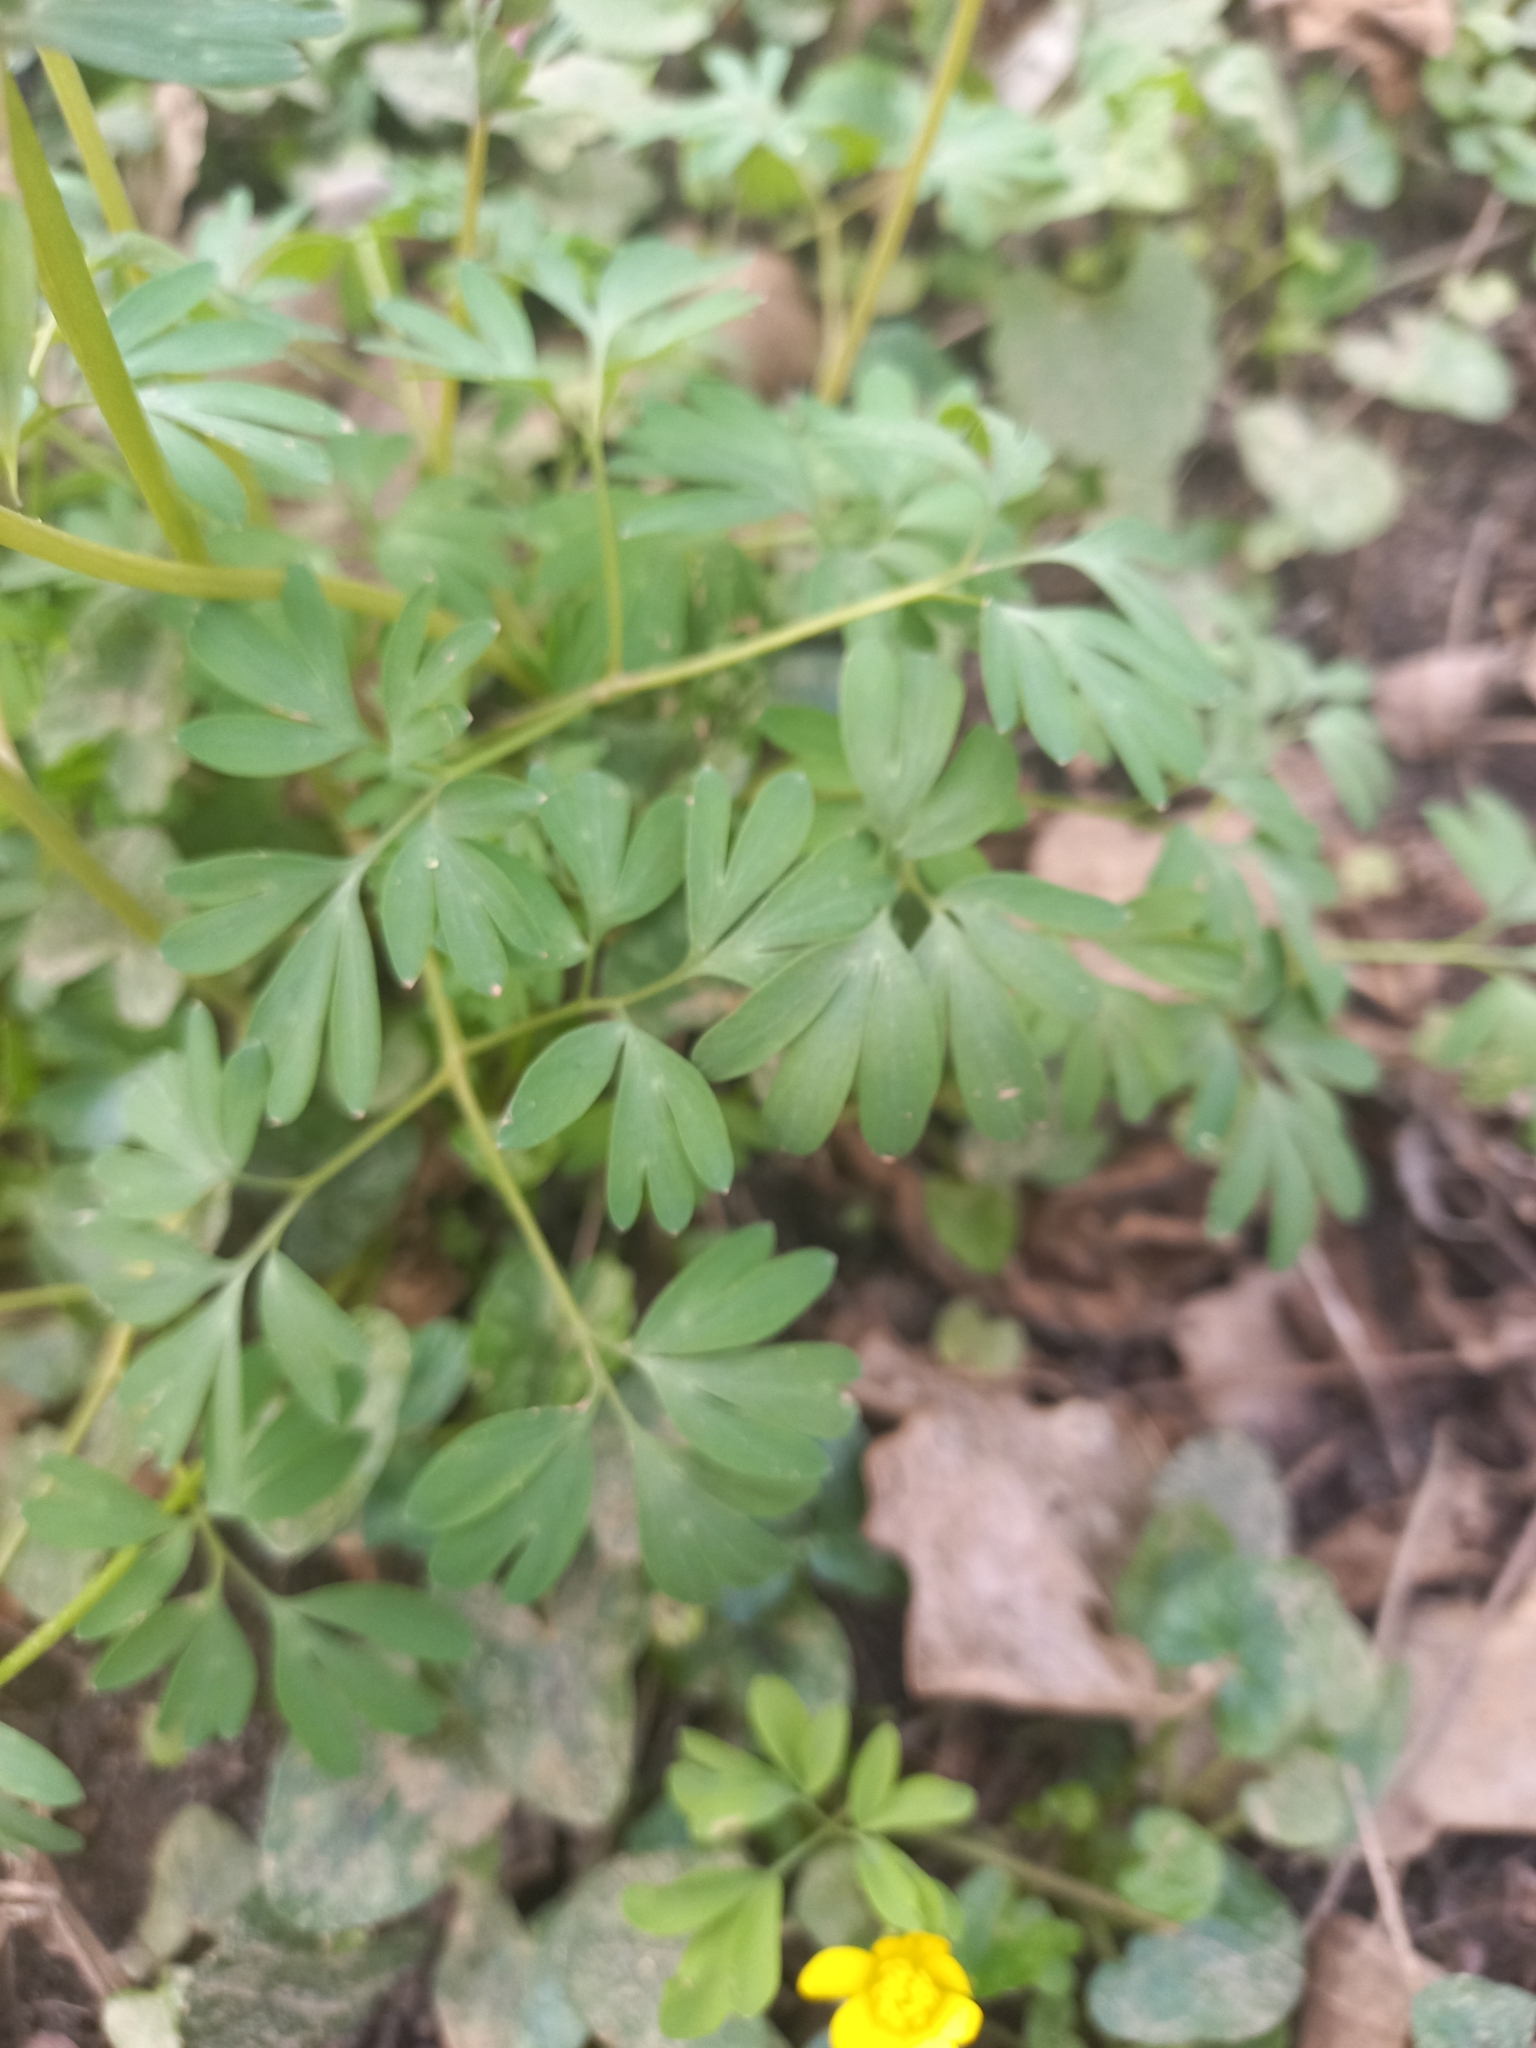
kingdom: Plantae
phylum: Tracheophyta
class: Magnoliopsida
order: Ranunculales
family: Papaveraceae
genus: Corydalis
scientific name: Corydalis solida
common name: Bird-in-a-bush
